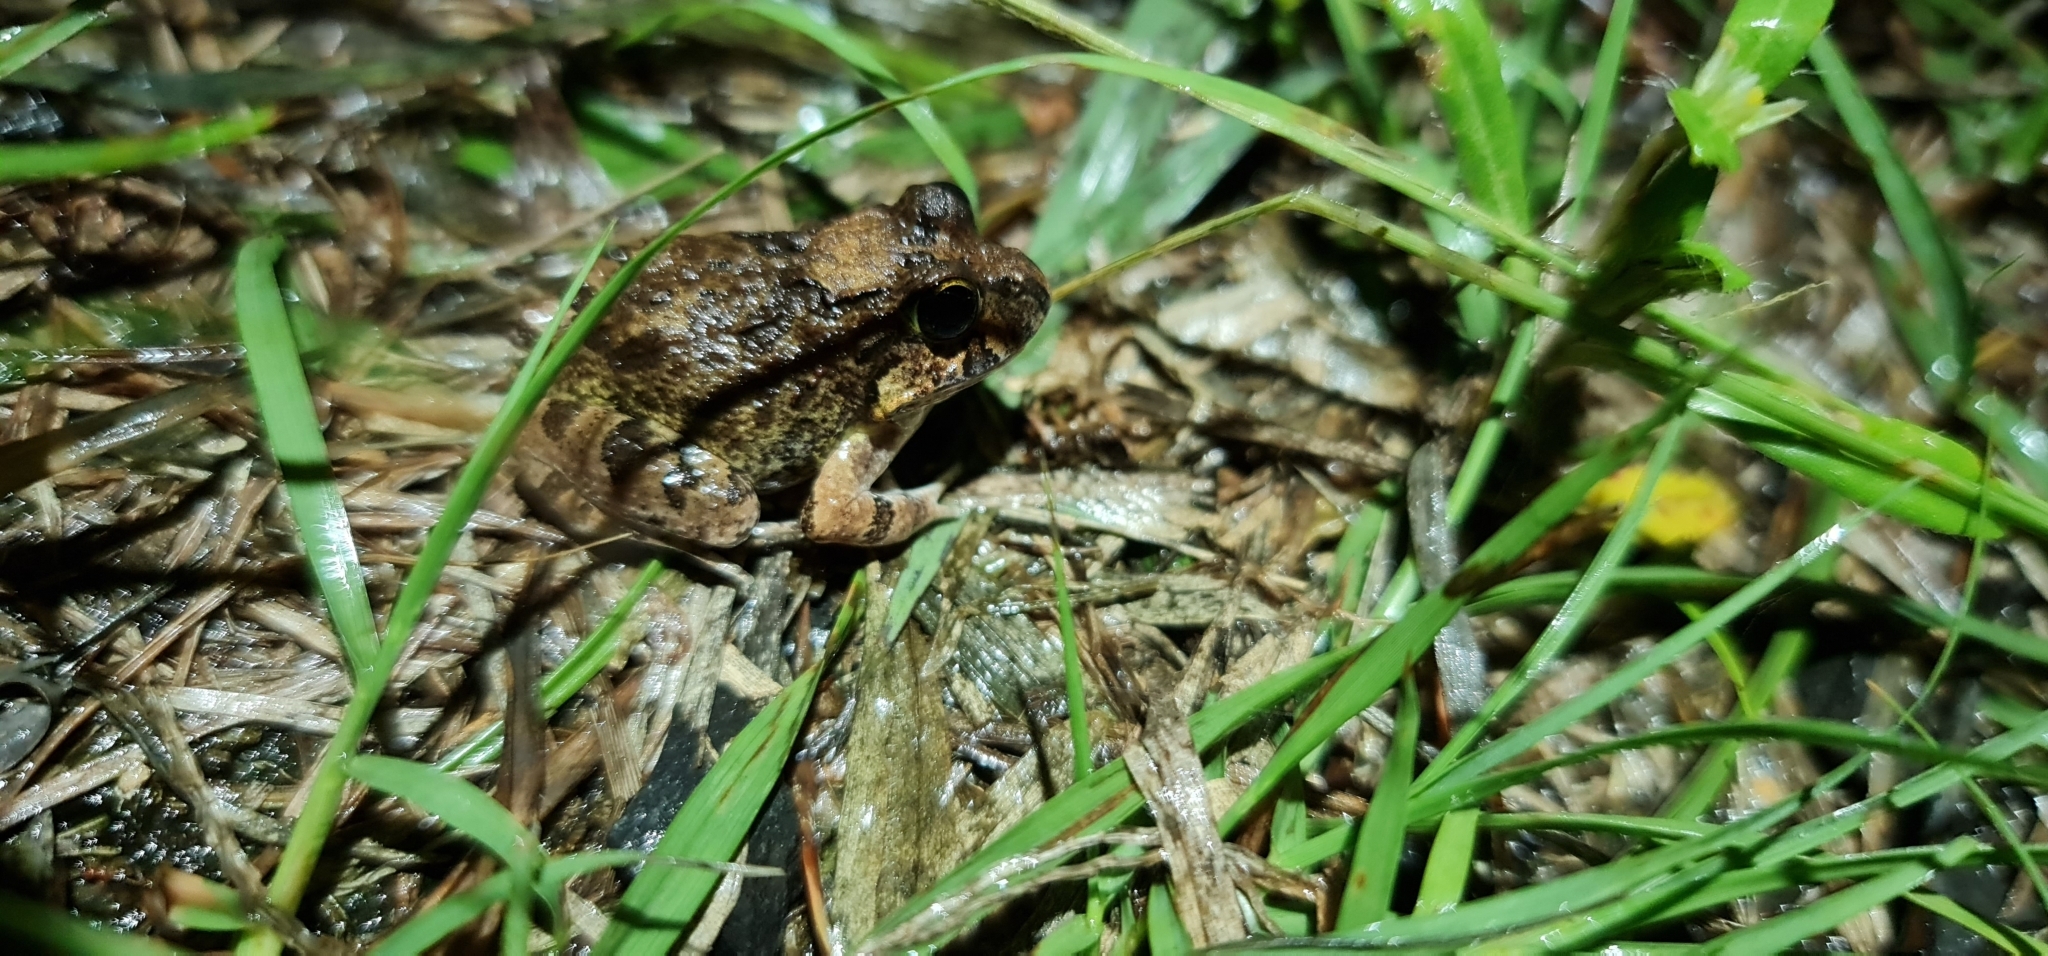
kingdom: Animalia
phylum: Chordata
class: Amphibia
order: Anura
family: Limnodynastidae
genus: Platyplectrum
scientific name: Platyplectrum ornatum
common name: Ornate burrowing frog
